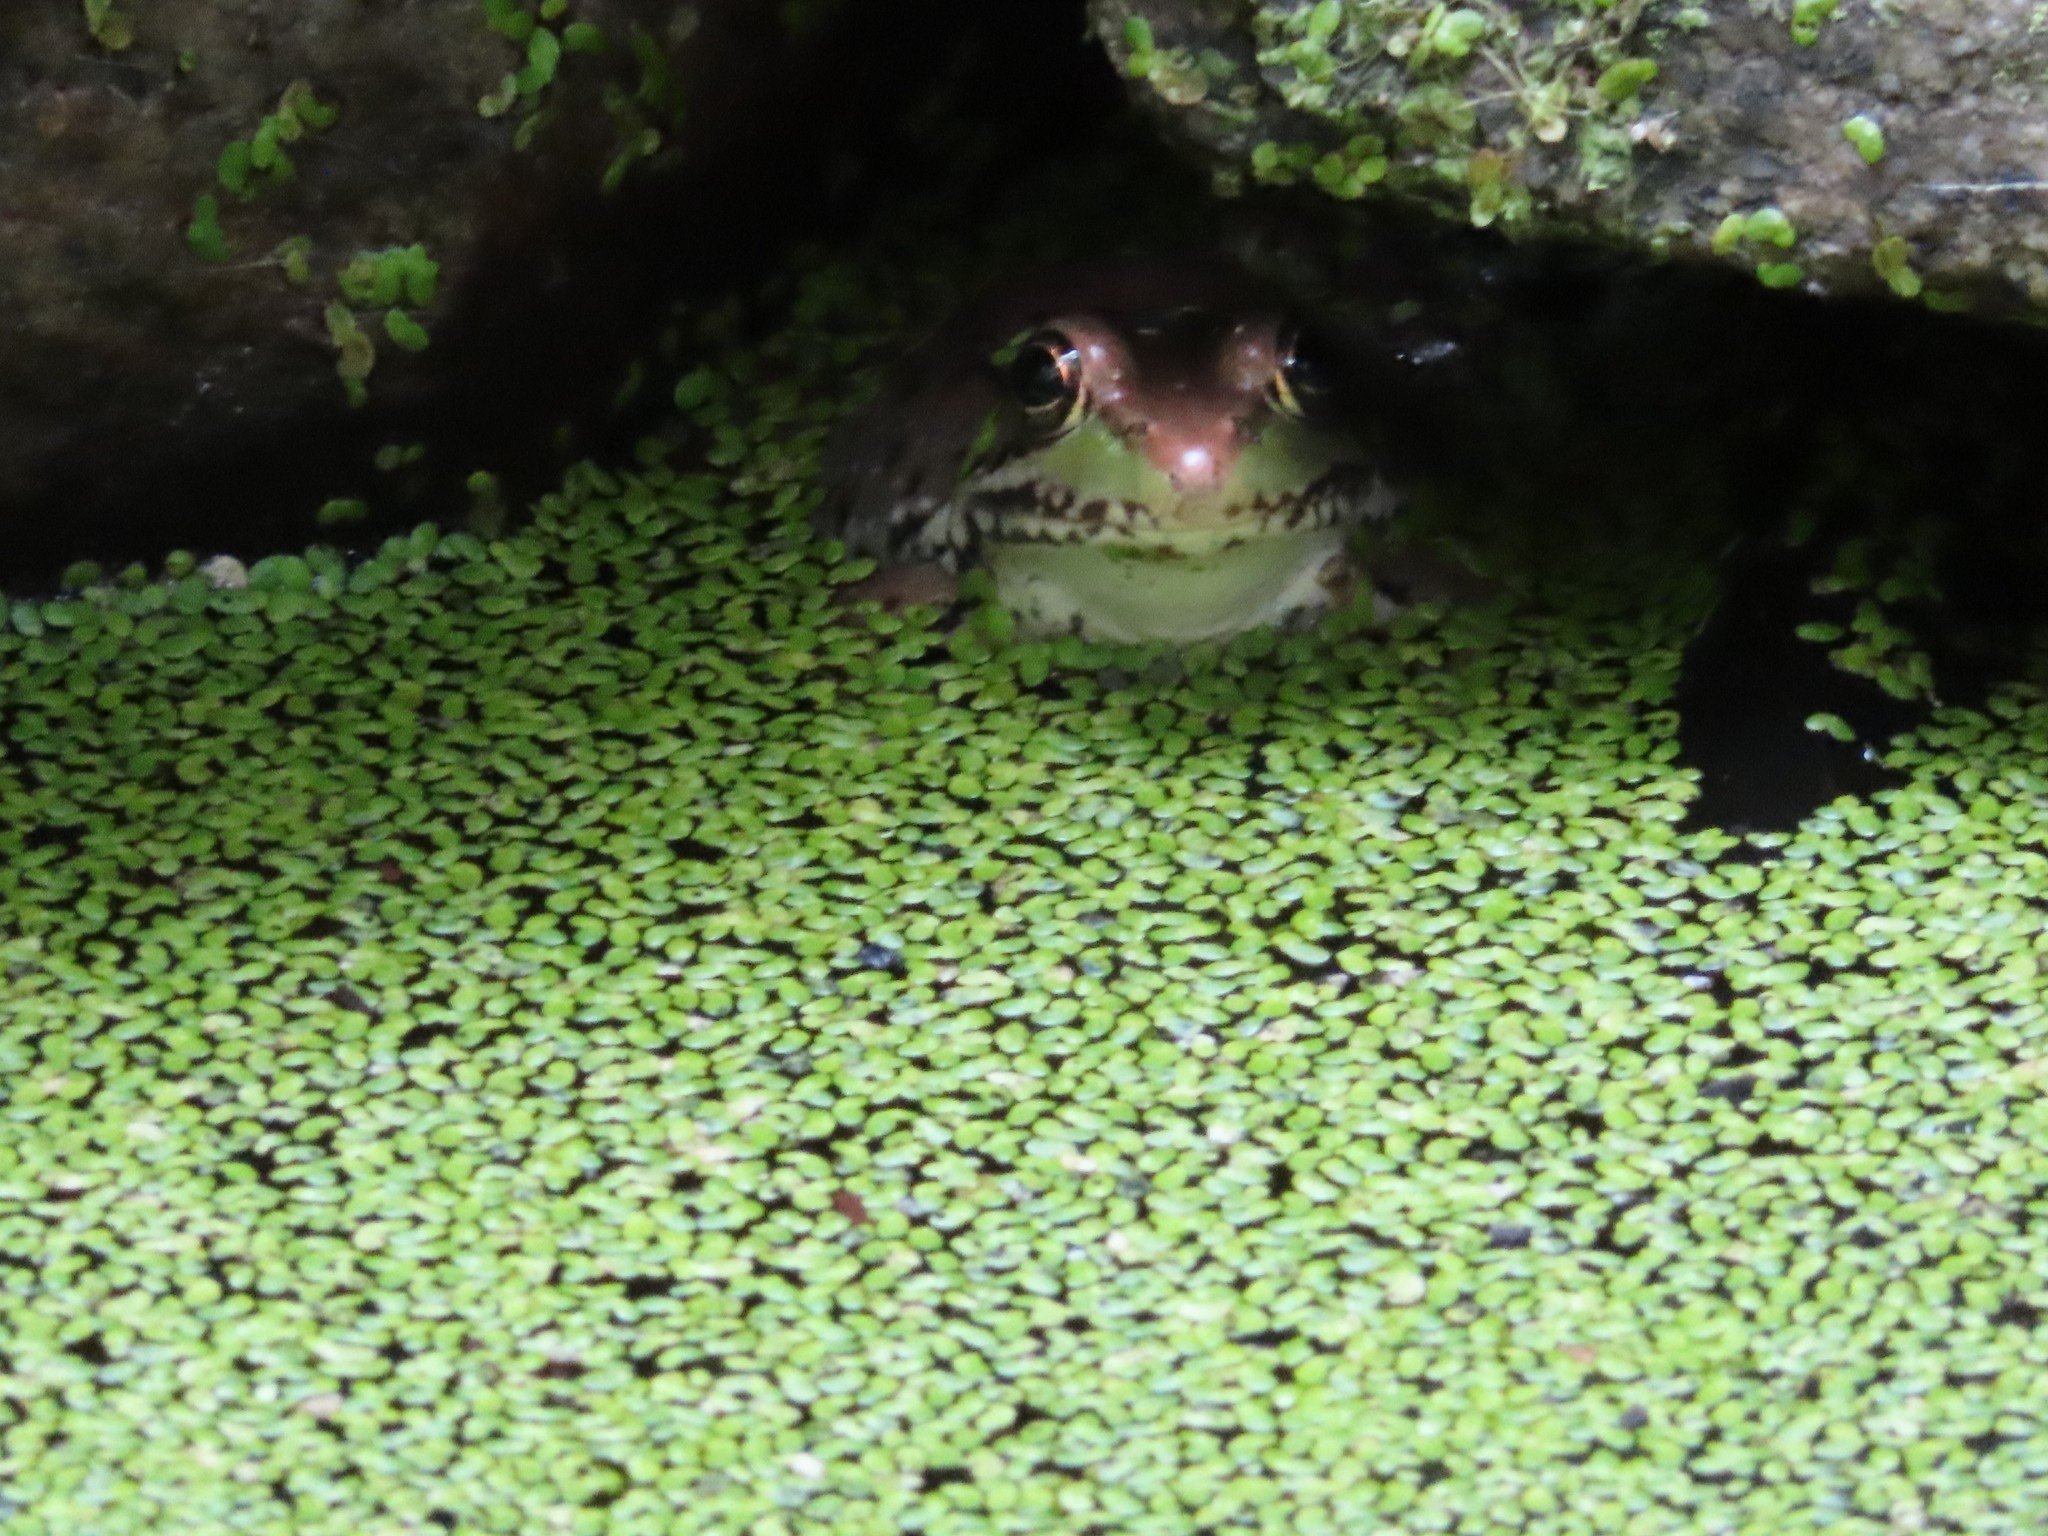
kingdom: Animalia
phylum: Chordata
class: Amphibia
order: Anura
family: Ranidae
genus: Lithobates
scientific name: Lithobates clamitans
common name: Green frog
